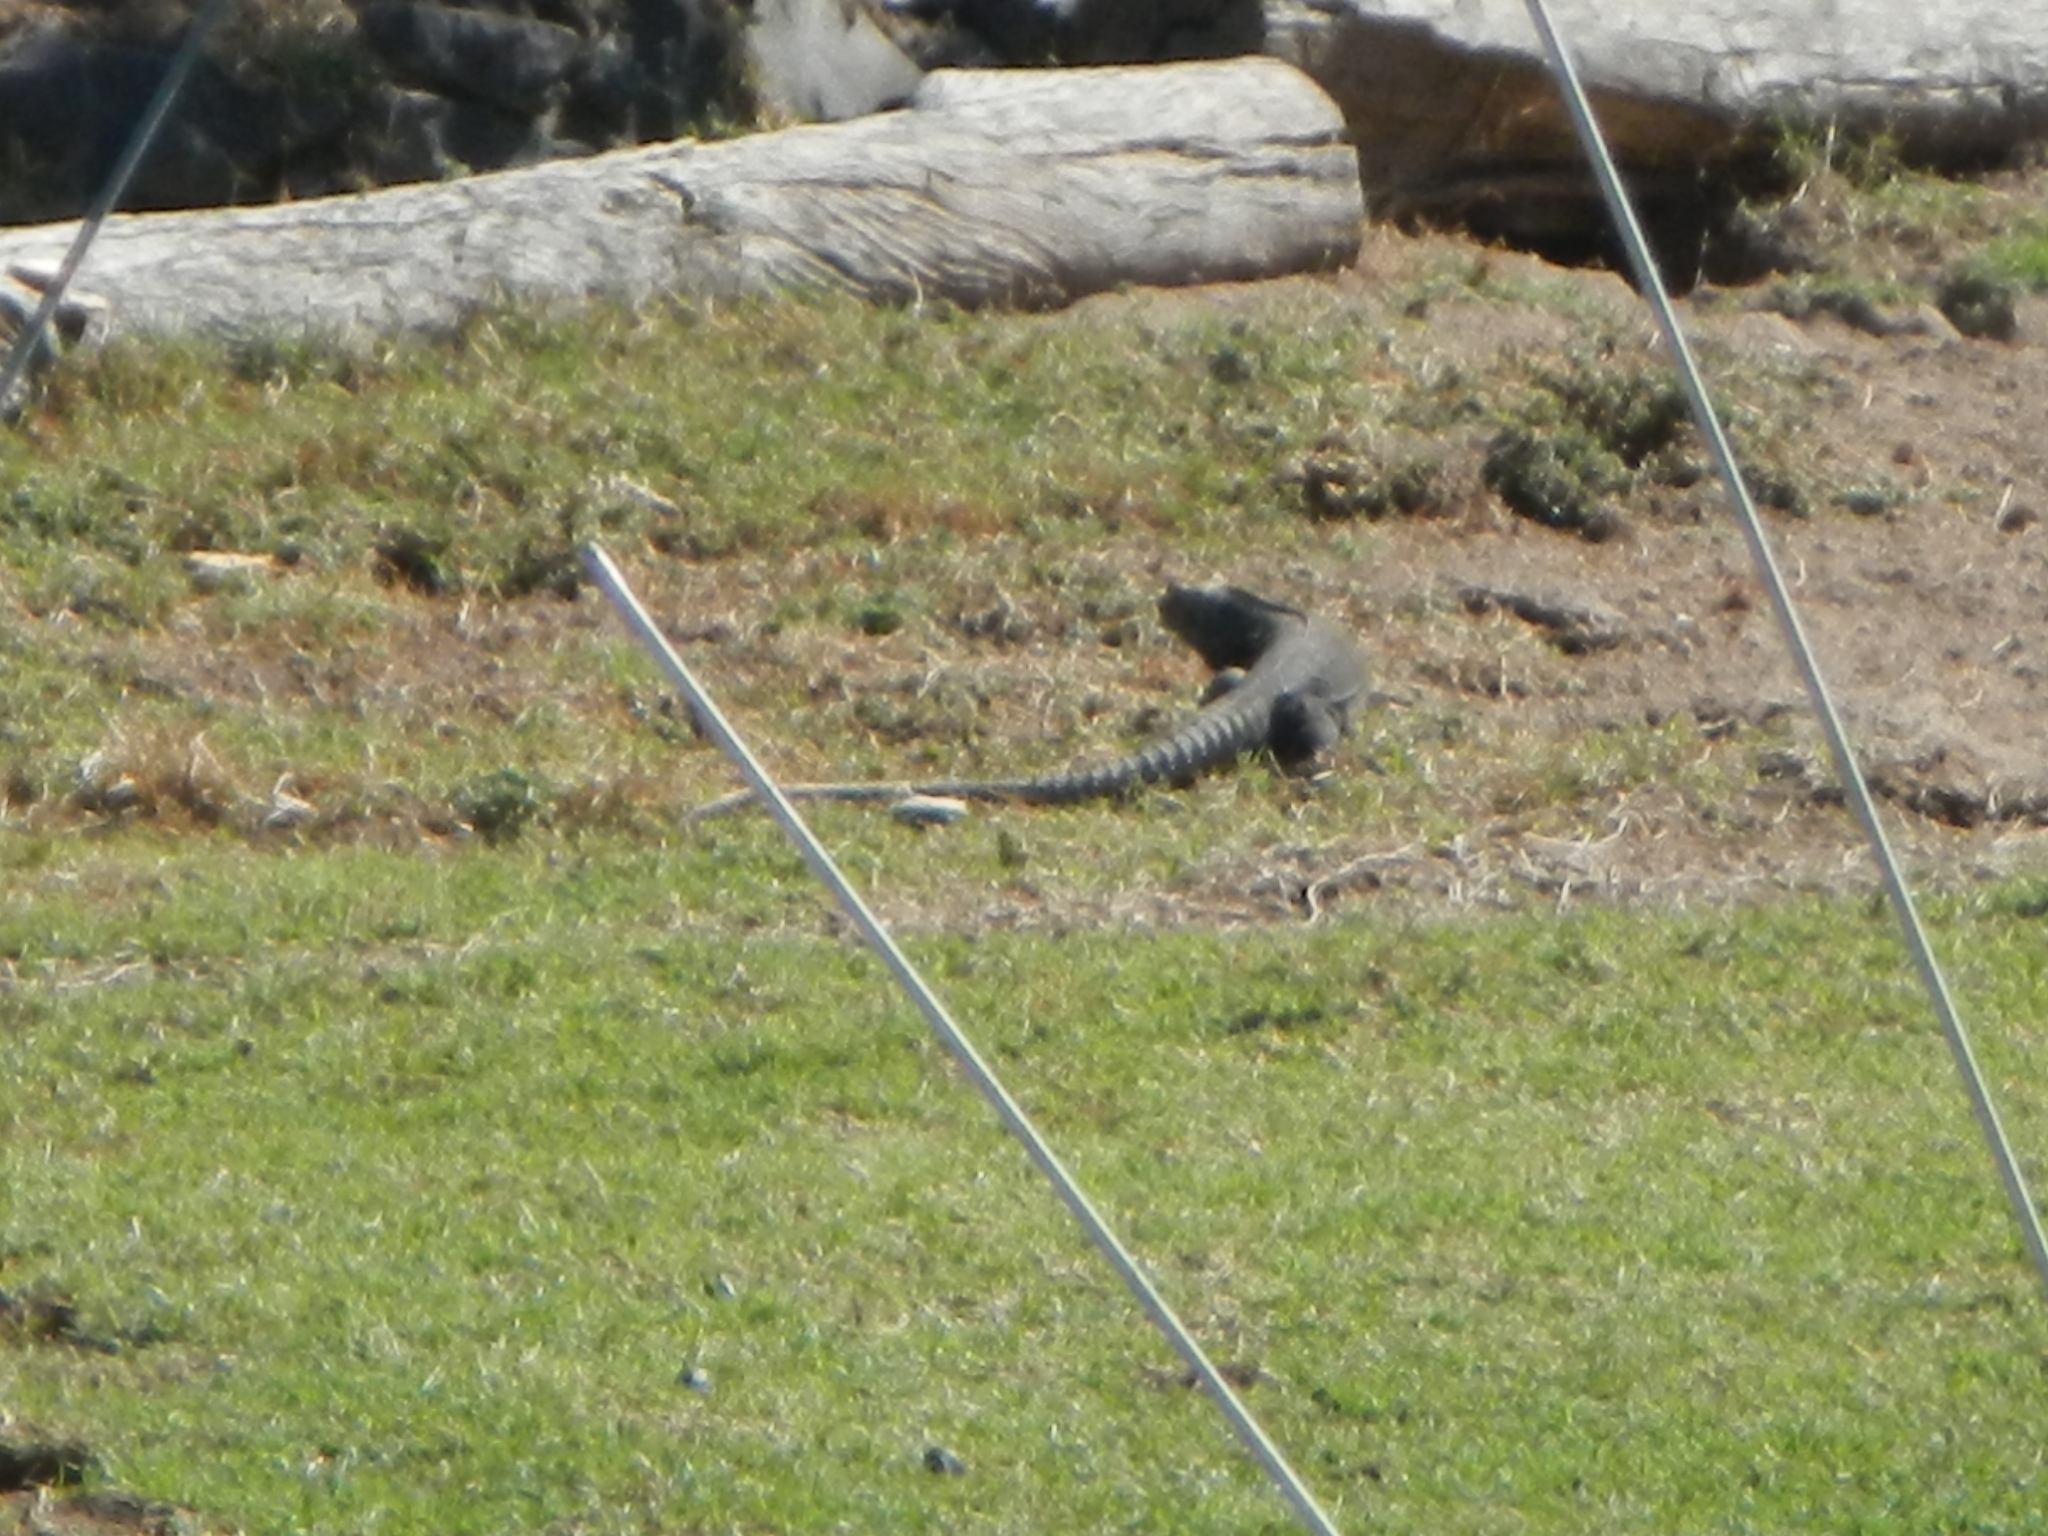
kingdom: Animalia
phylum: Chordata
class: Squamata
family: Iguanidae
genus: Ctenosaura
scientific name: Ctenosaura pectinata
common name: Guerreran spiny-tailed iguana
